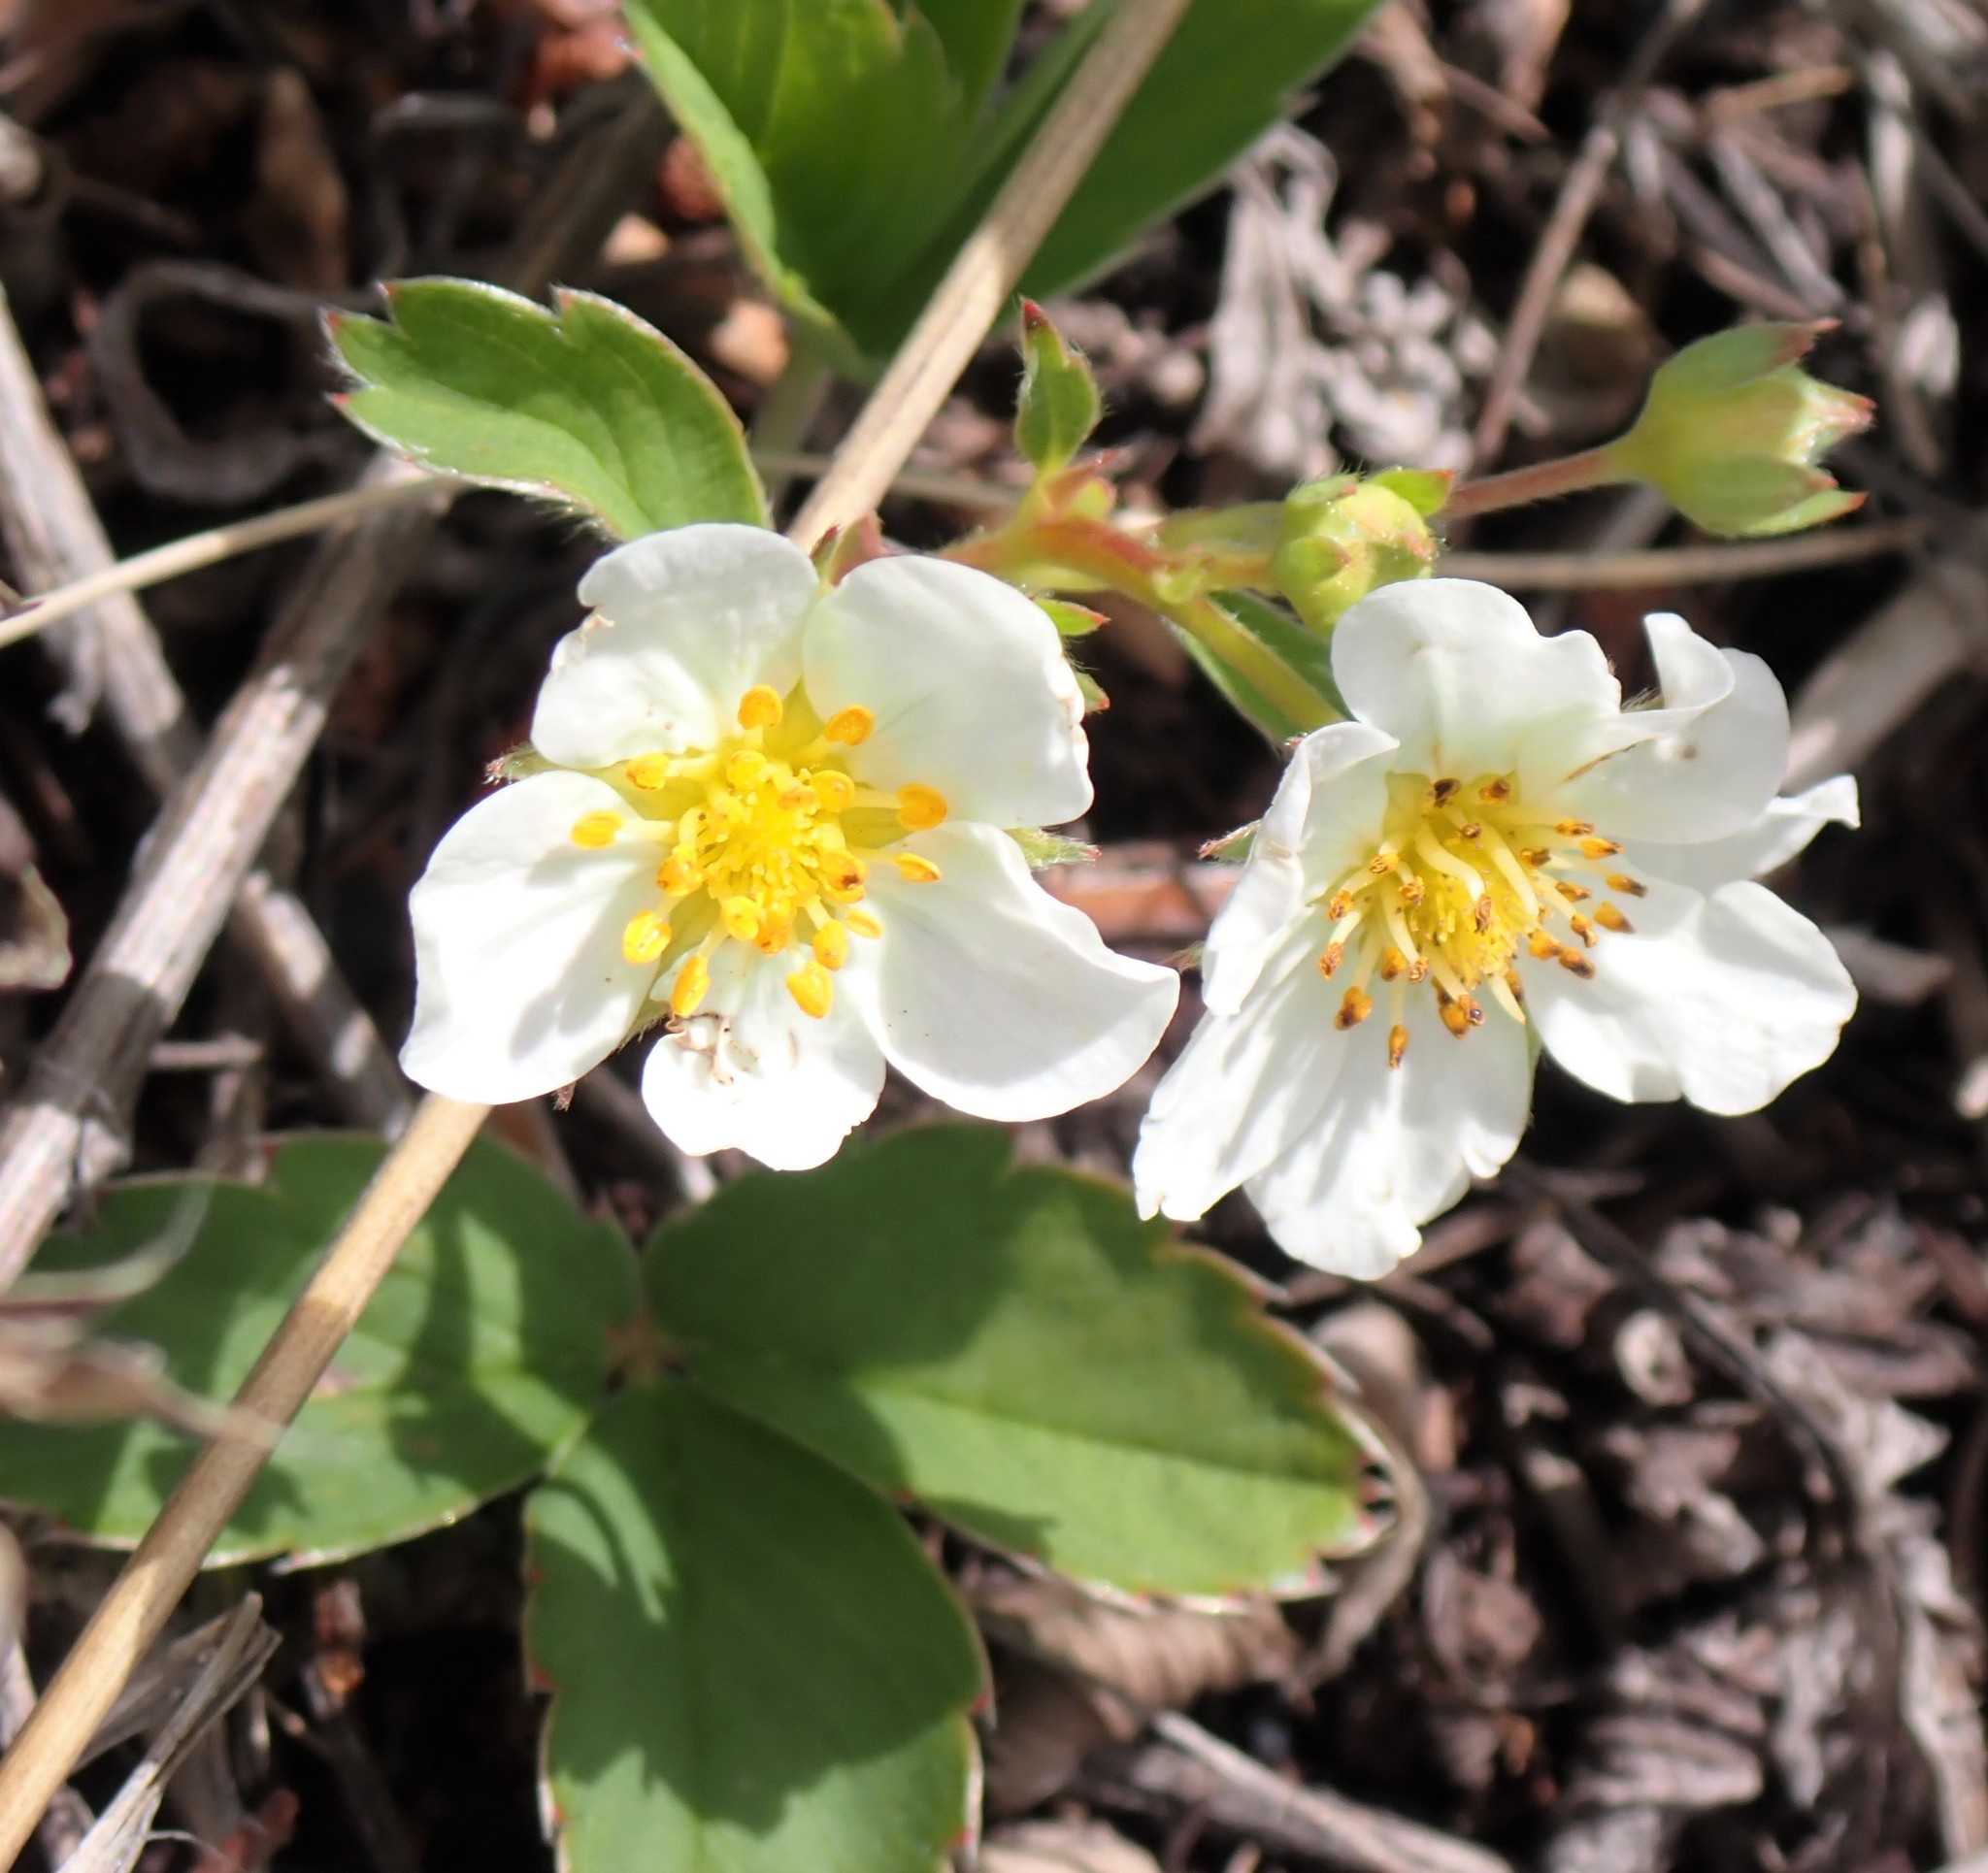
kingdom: Plantae
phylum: Tracheophyta
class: Magnoliopsida
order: Rosales
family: Rosaceae
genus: Fragaria
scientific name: Fragaria virginiana
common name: Thickleaved wild strawberry
